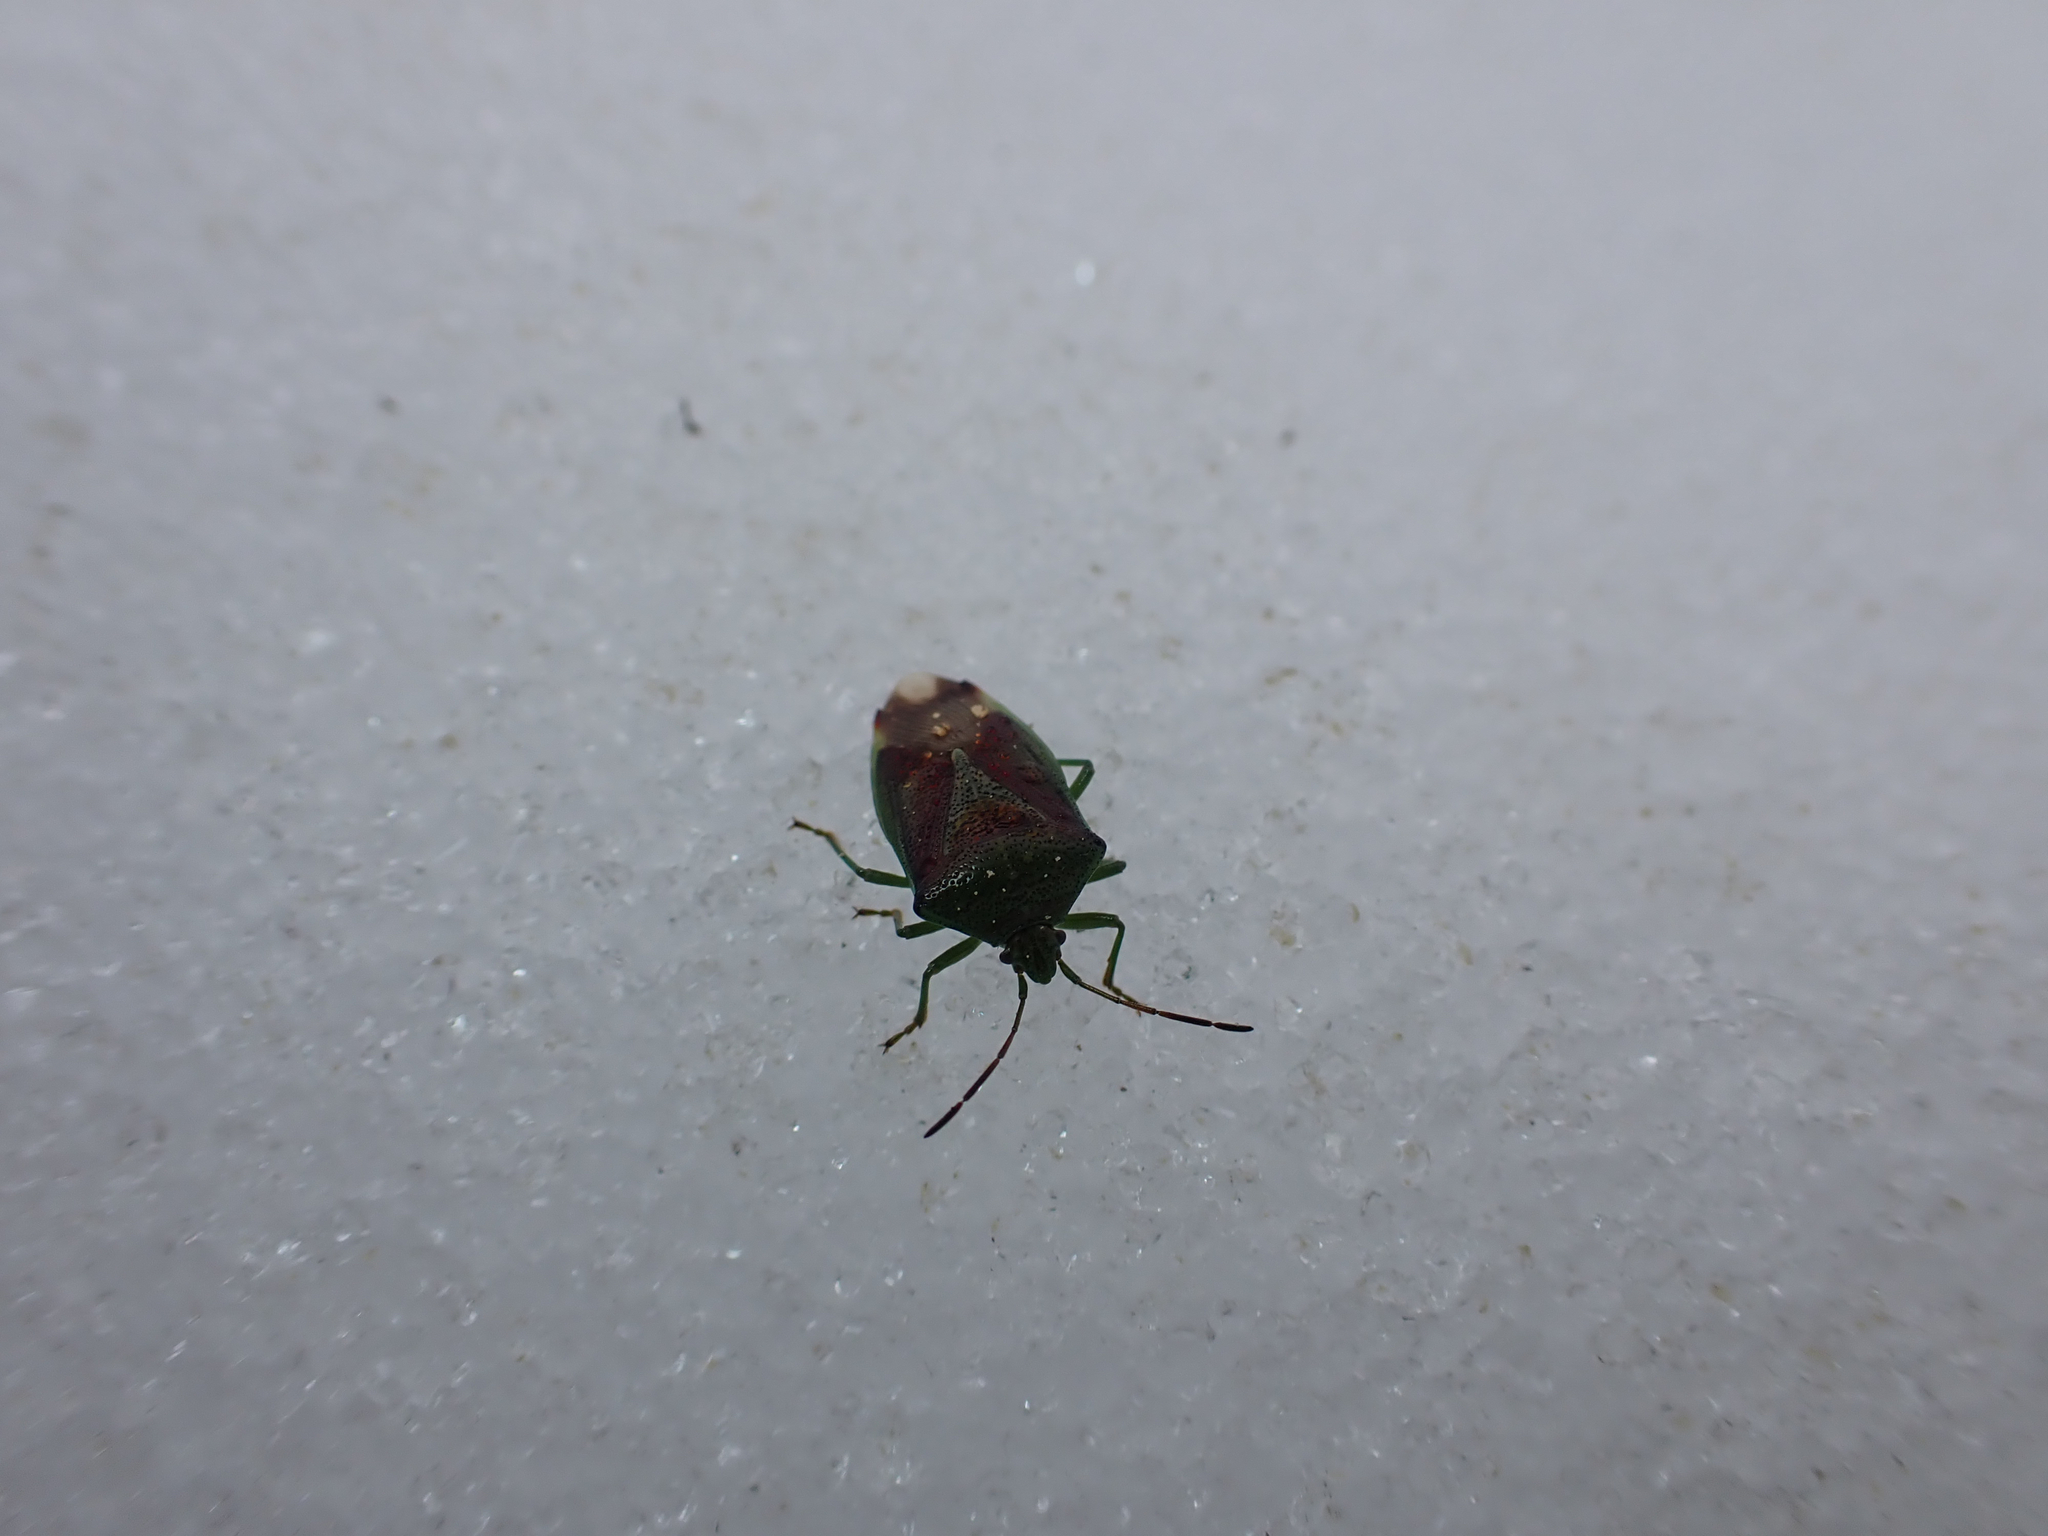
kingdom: Animalia
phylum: Arthropoda
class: Insecta
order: Hemiptera
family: Acanthosomatidae
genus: Elasmostethus
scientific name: Elasmostethus interstinctus
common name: Birch shieldbug
